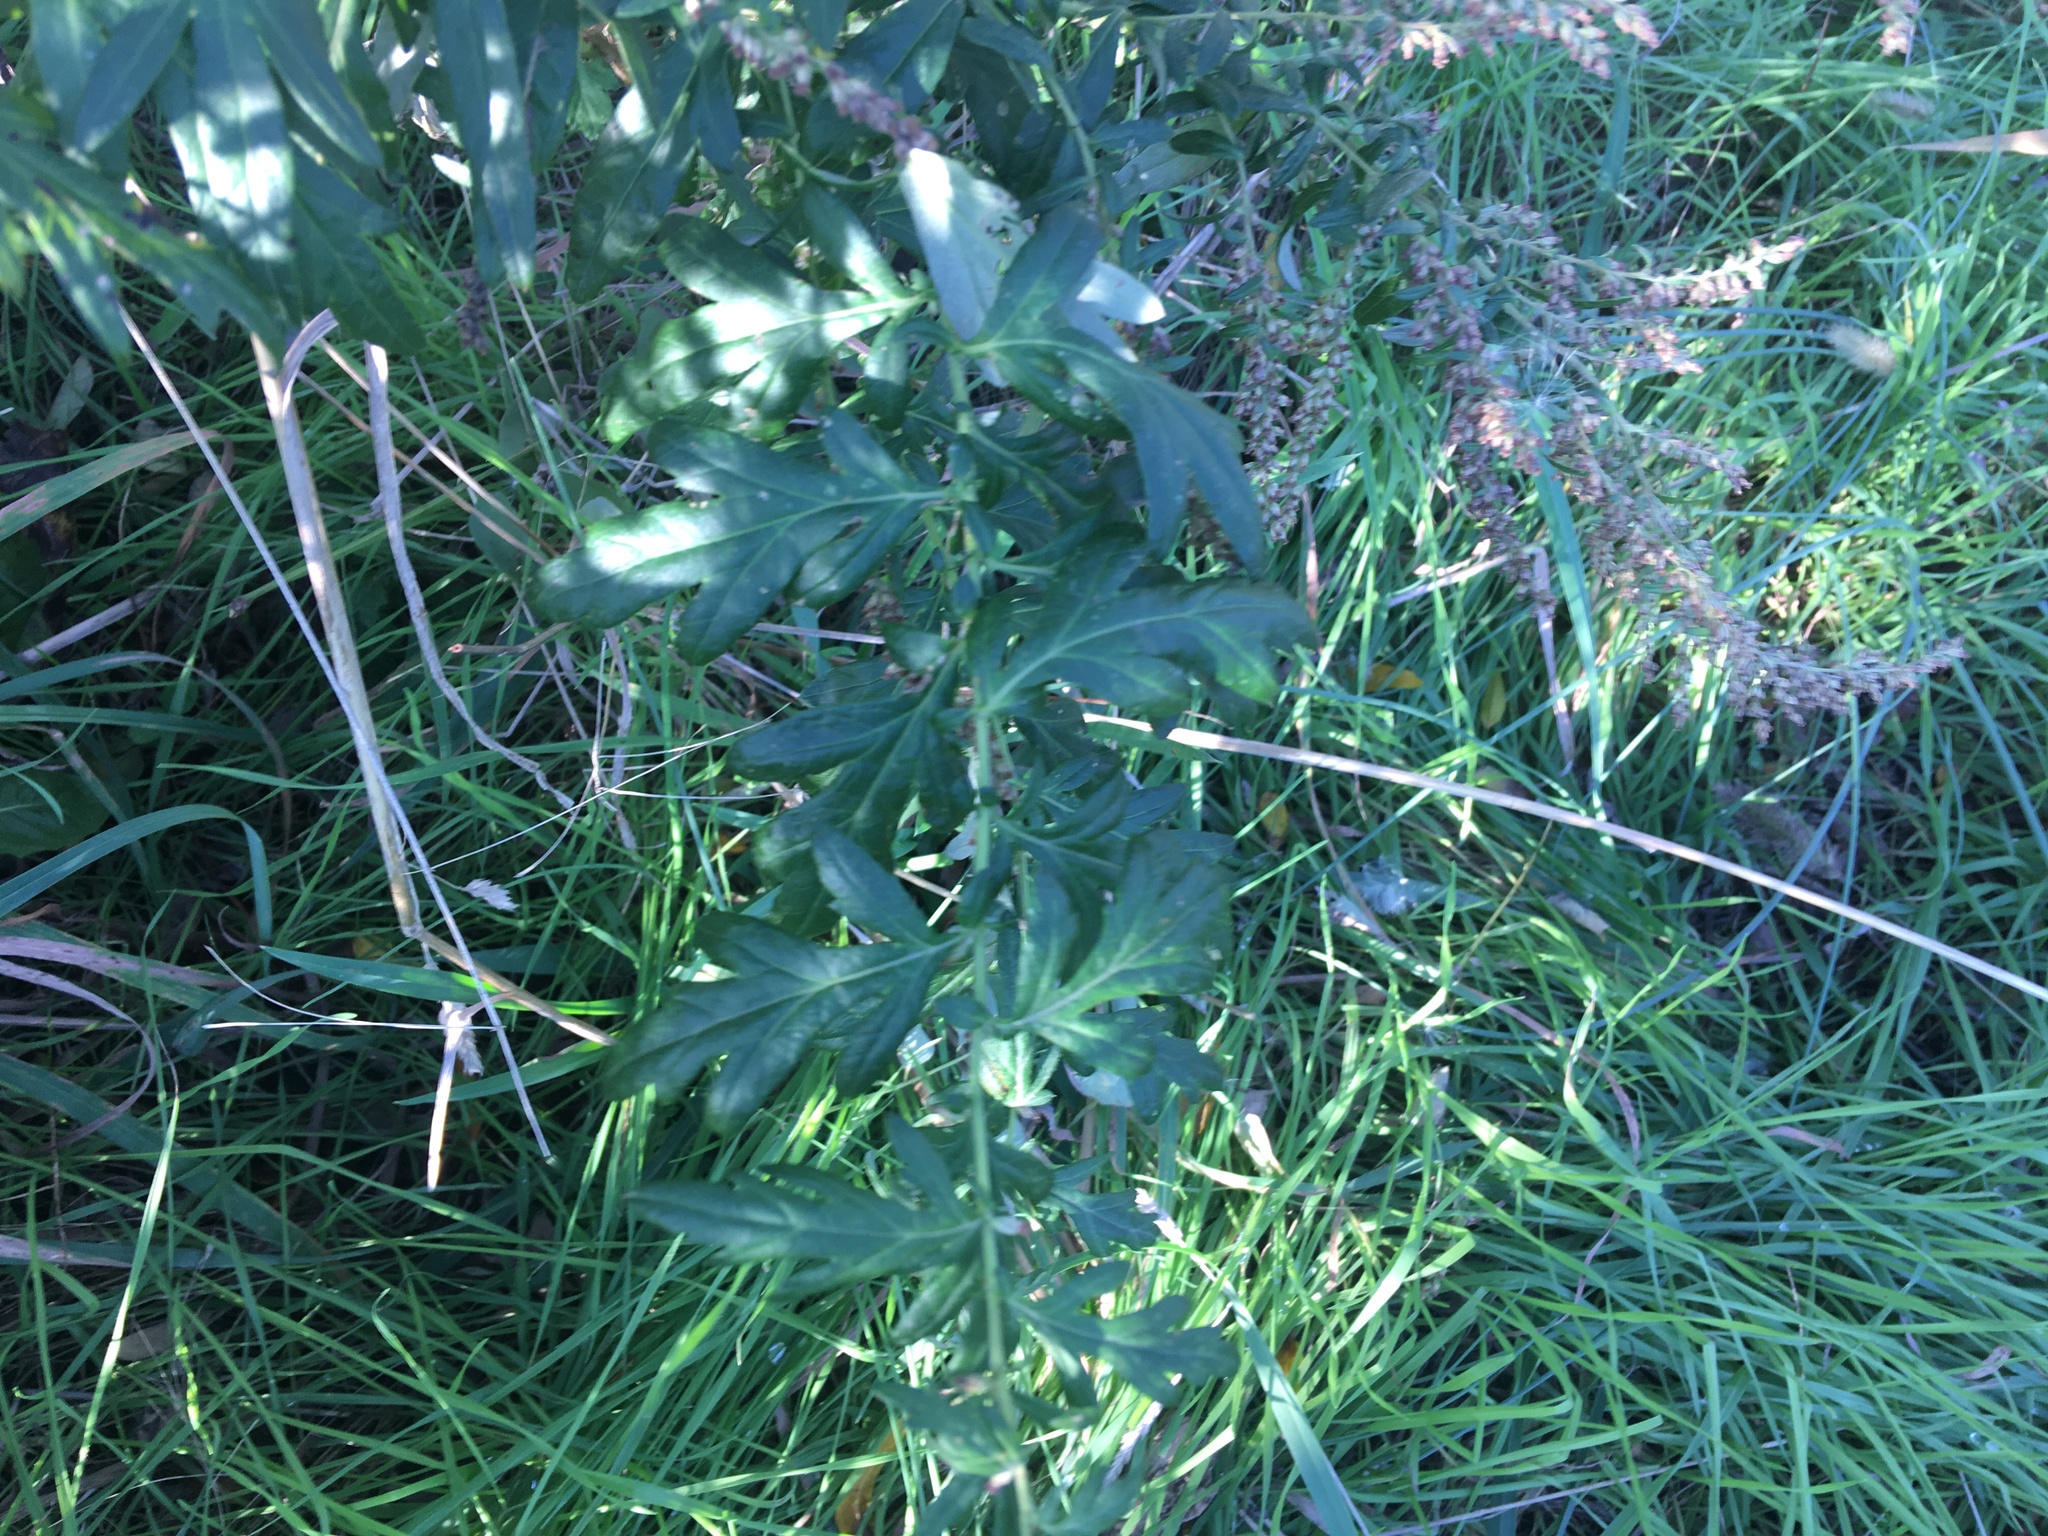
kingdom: Plantae
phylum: Tracheophyta
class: Magnoliopsida
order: Asterales
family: Asteraceae
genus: Artemisia
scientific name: Artemisia vulgaris
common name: Mugwort
